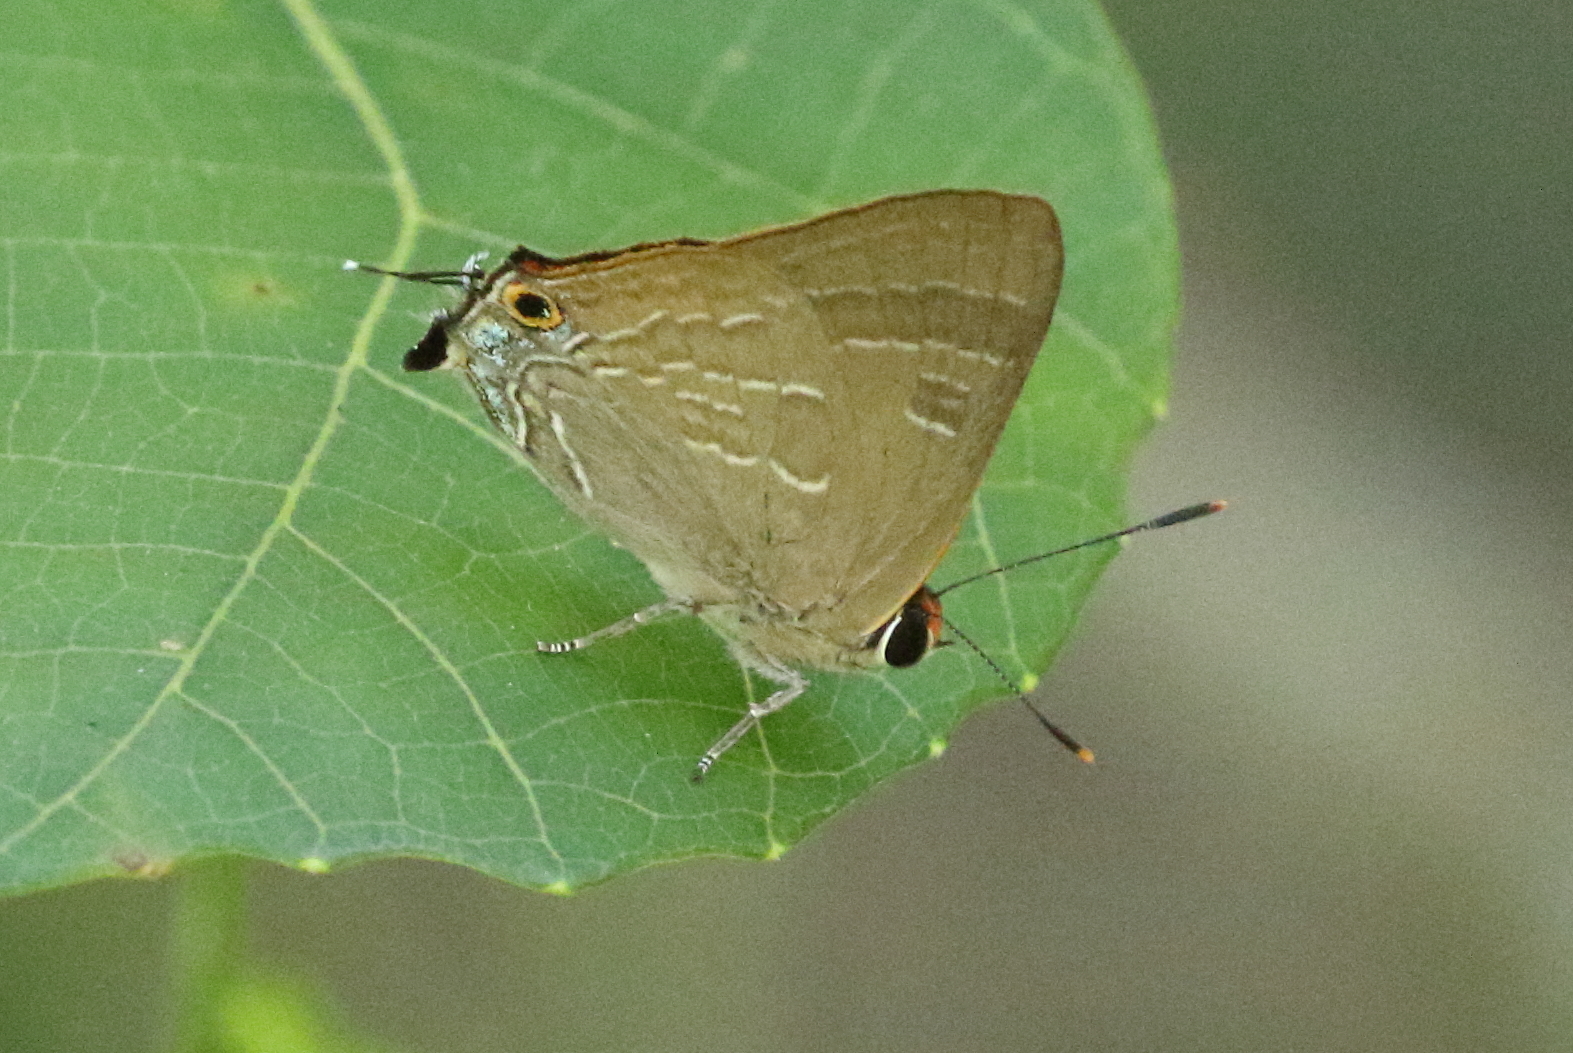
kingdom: Animalia
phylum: Arthropoda
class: Insecta
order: Lepidoptera
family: Lycaenidae
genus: Deudorix
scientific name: Deudorix diovis
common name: Bright cornelian
